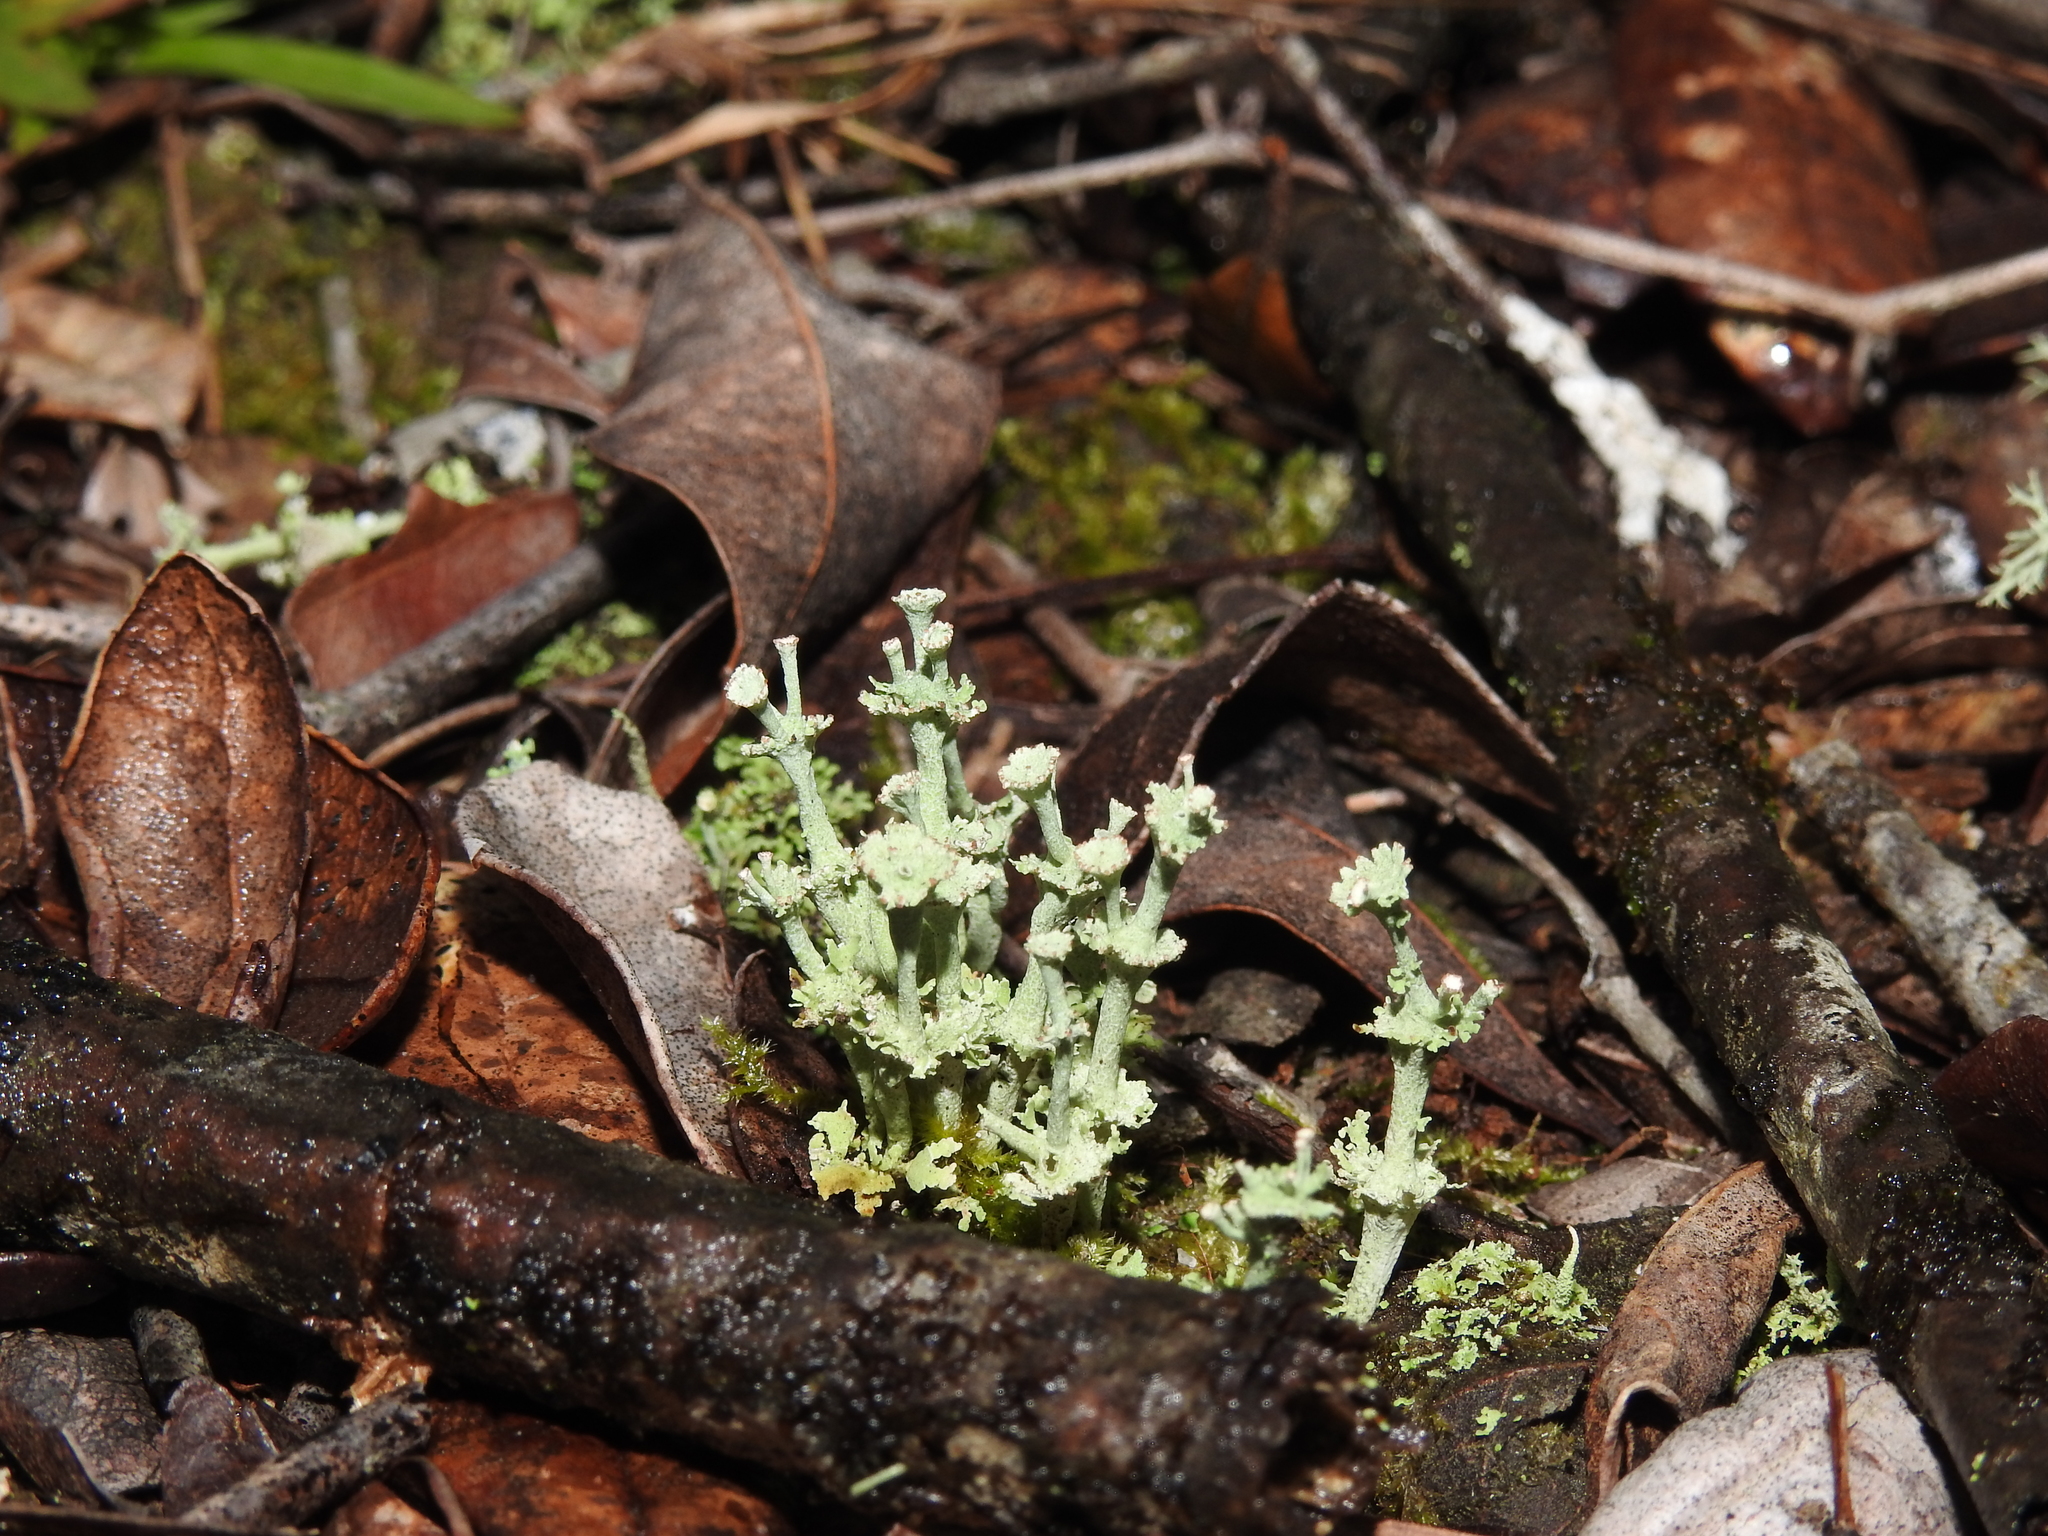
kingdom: Fungi
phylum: Ascomycota
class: Lecanoromycetes
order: Lecanorales
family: Cladoniaceae
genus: Cladonia
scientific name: Cladonia rappii
